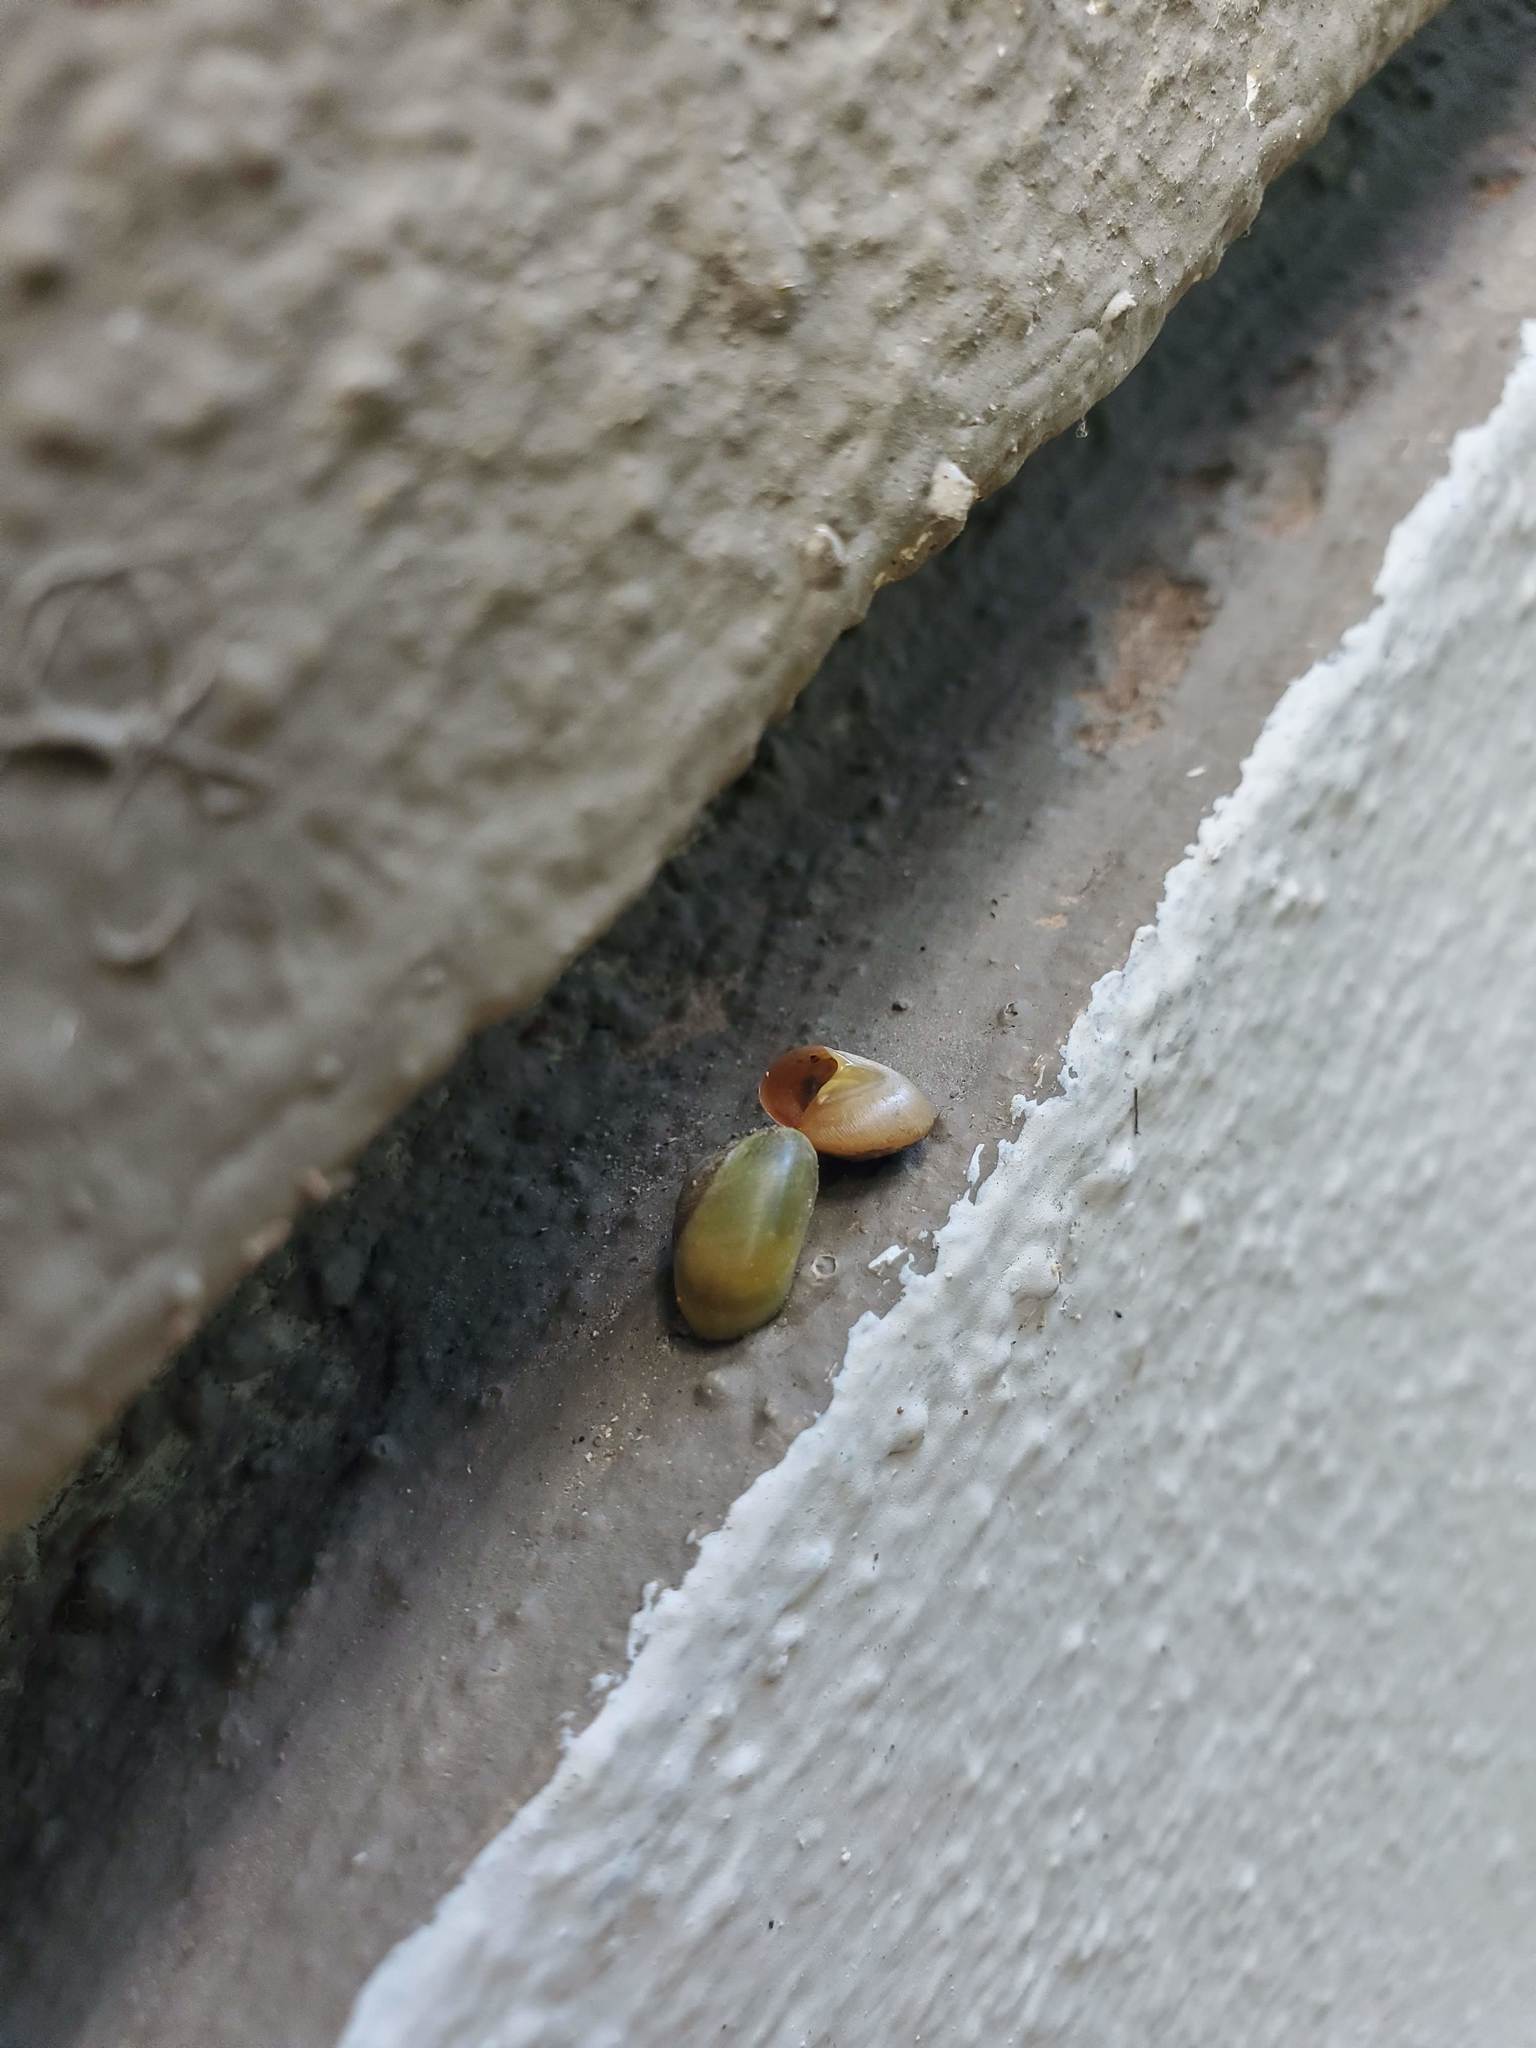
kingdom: Animalia
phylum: Mollusca
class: Gastropoda
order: Cycloneritida
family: Helicinidae
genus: Helicina
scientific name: Helicina foveata
